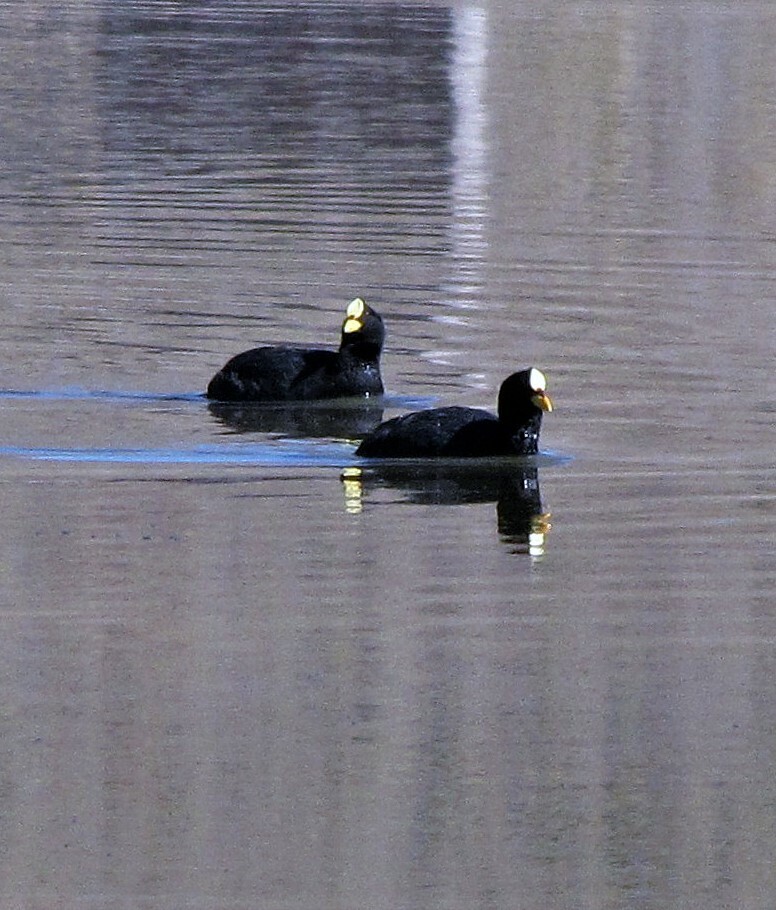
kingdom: Animalia
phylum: Chordata
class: Aves
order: Gruiformes
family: Rallidae
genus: Fulica
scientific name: Fulica armillata
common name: Red-gartered coot
